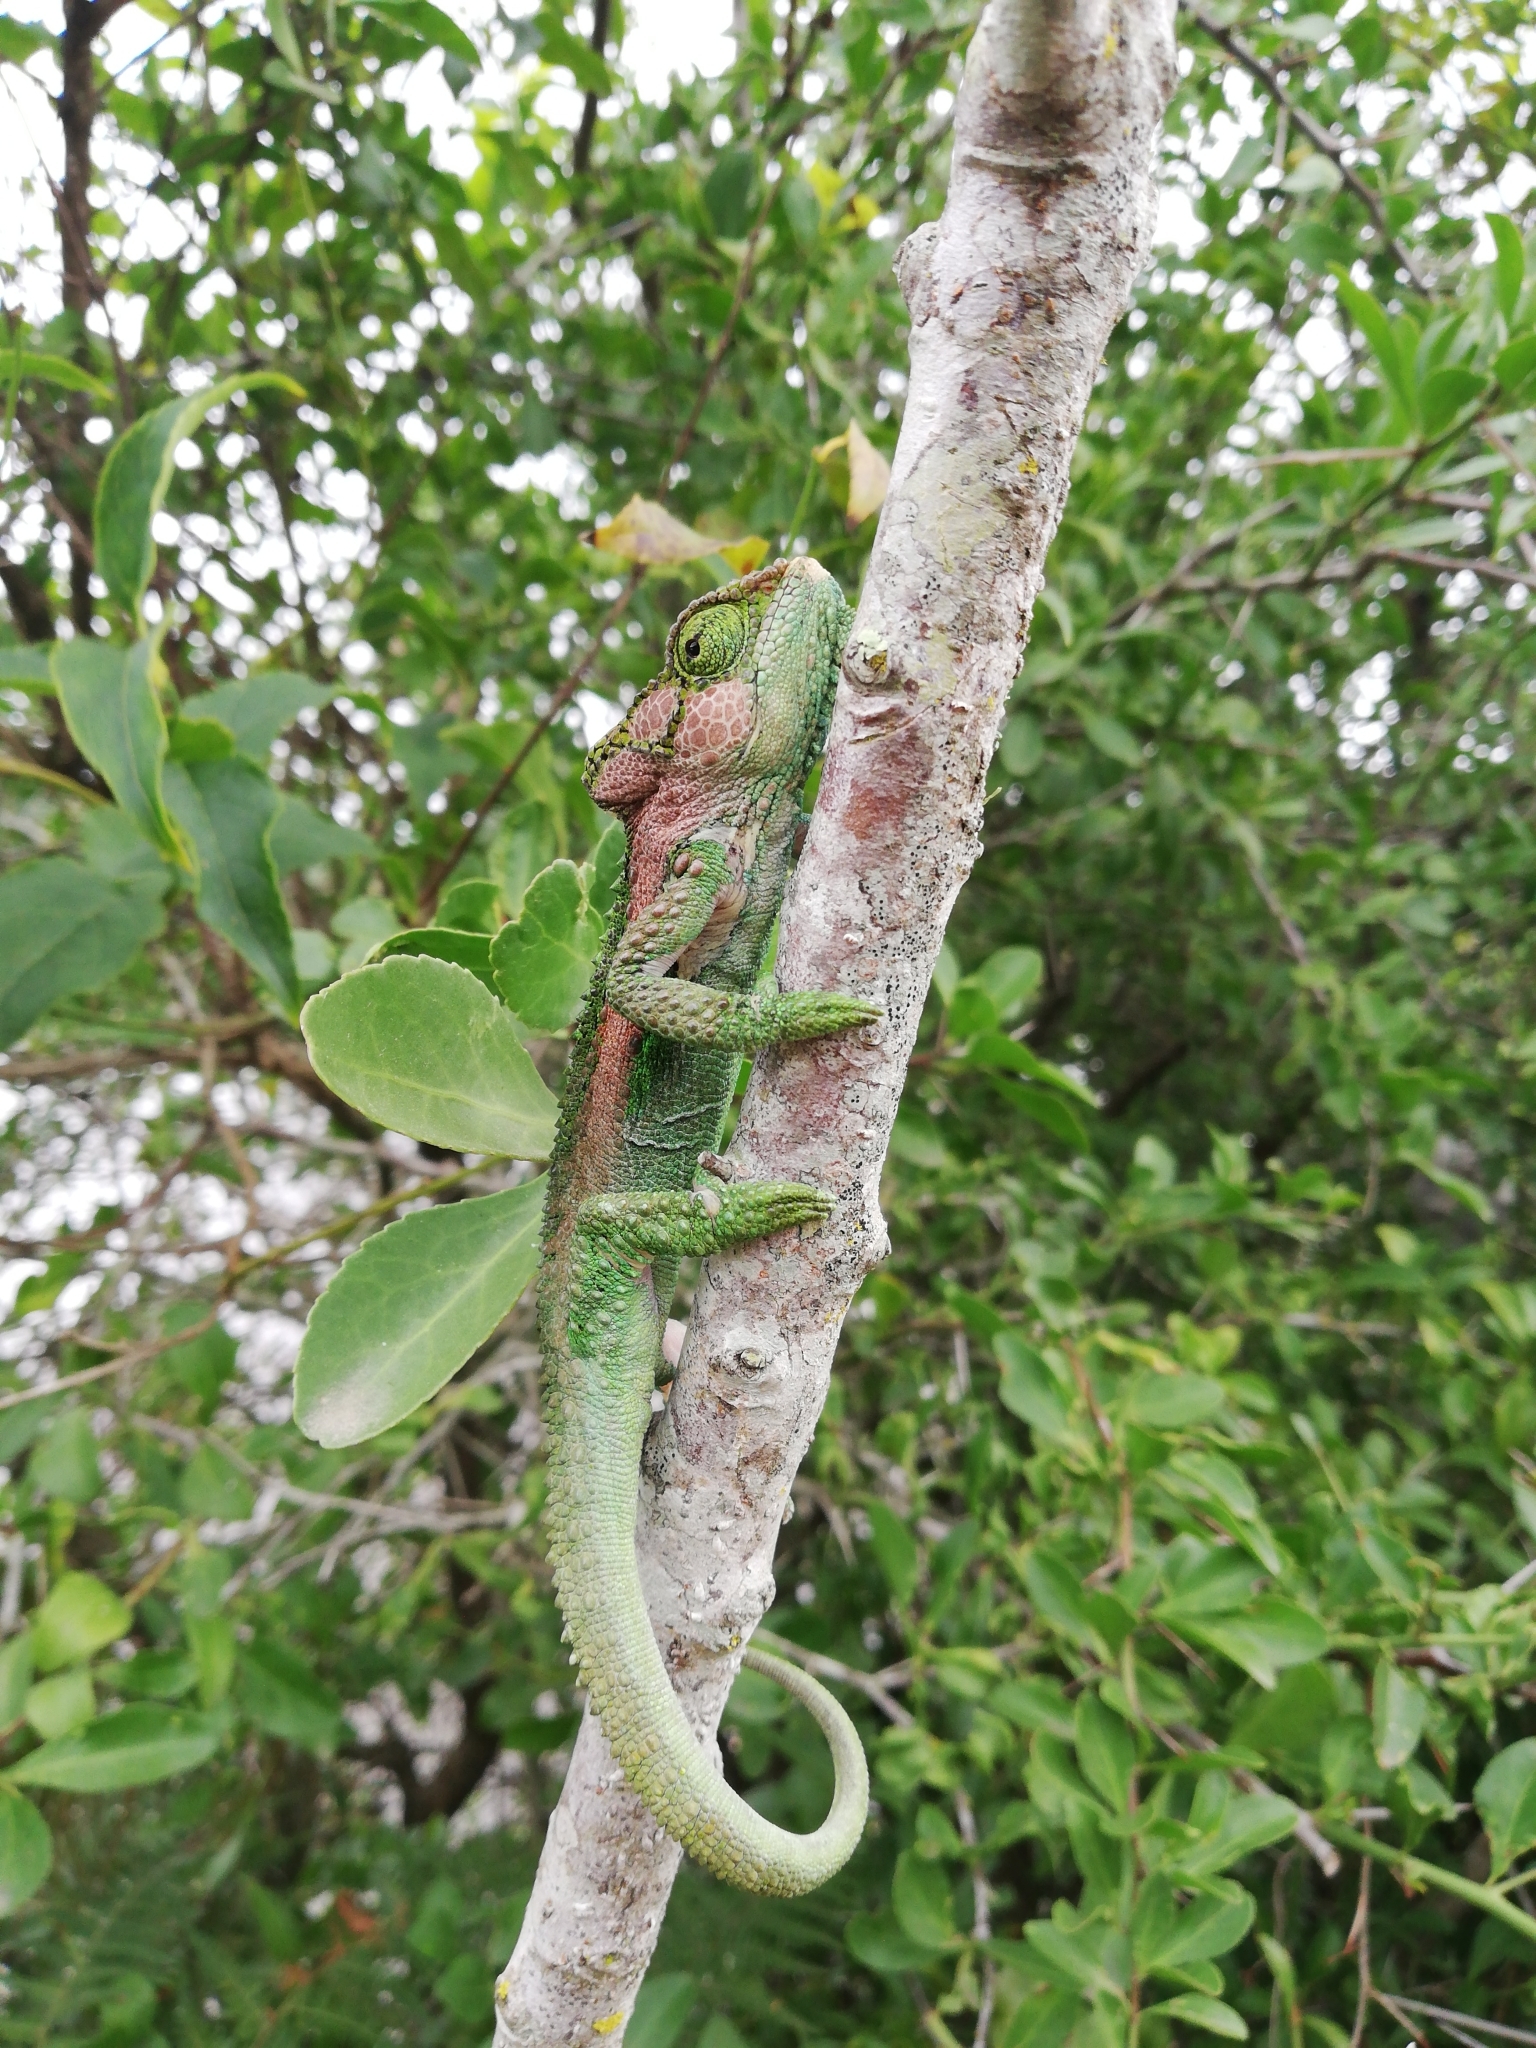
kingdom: Animalia
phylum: Chordata
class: Squamata
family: Chamaeleonidae
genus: Bradypodion
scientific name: Bradypodion damaranum
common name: Knysna dwarf chameleon
